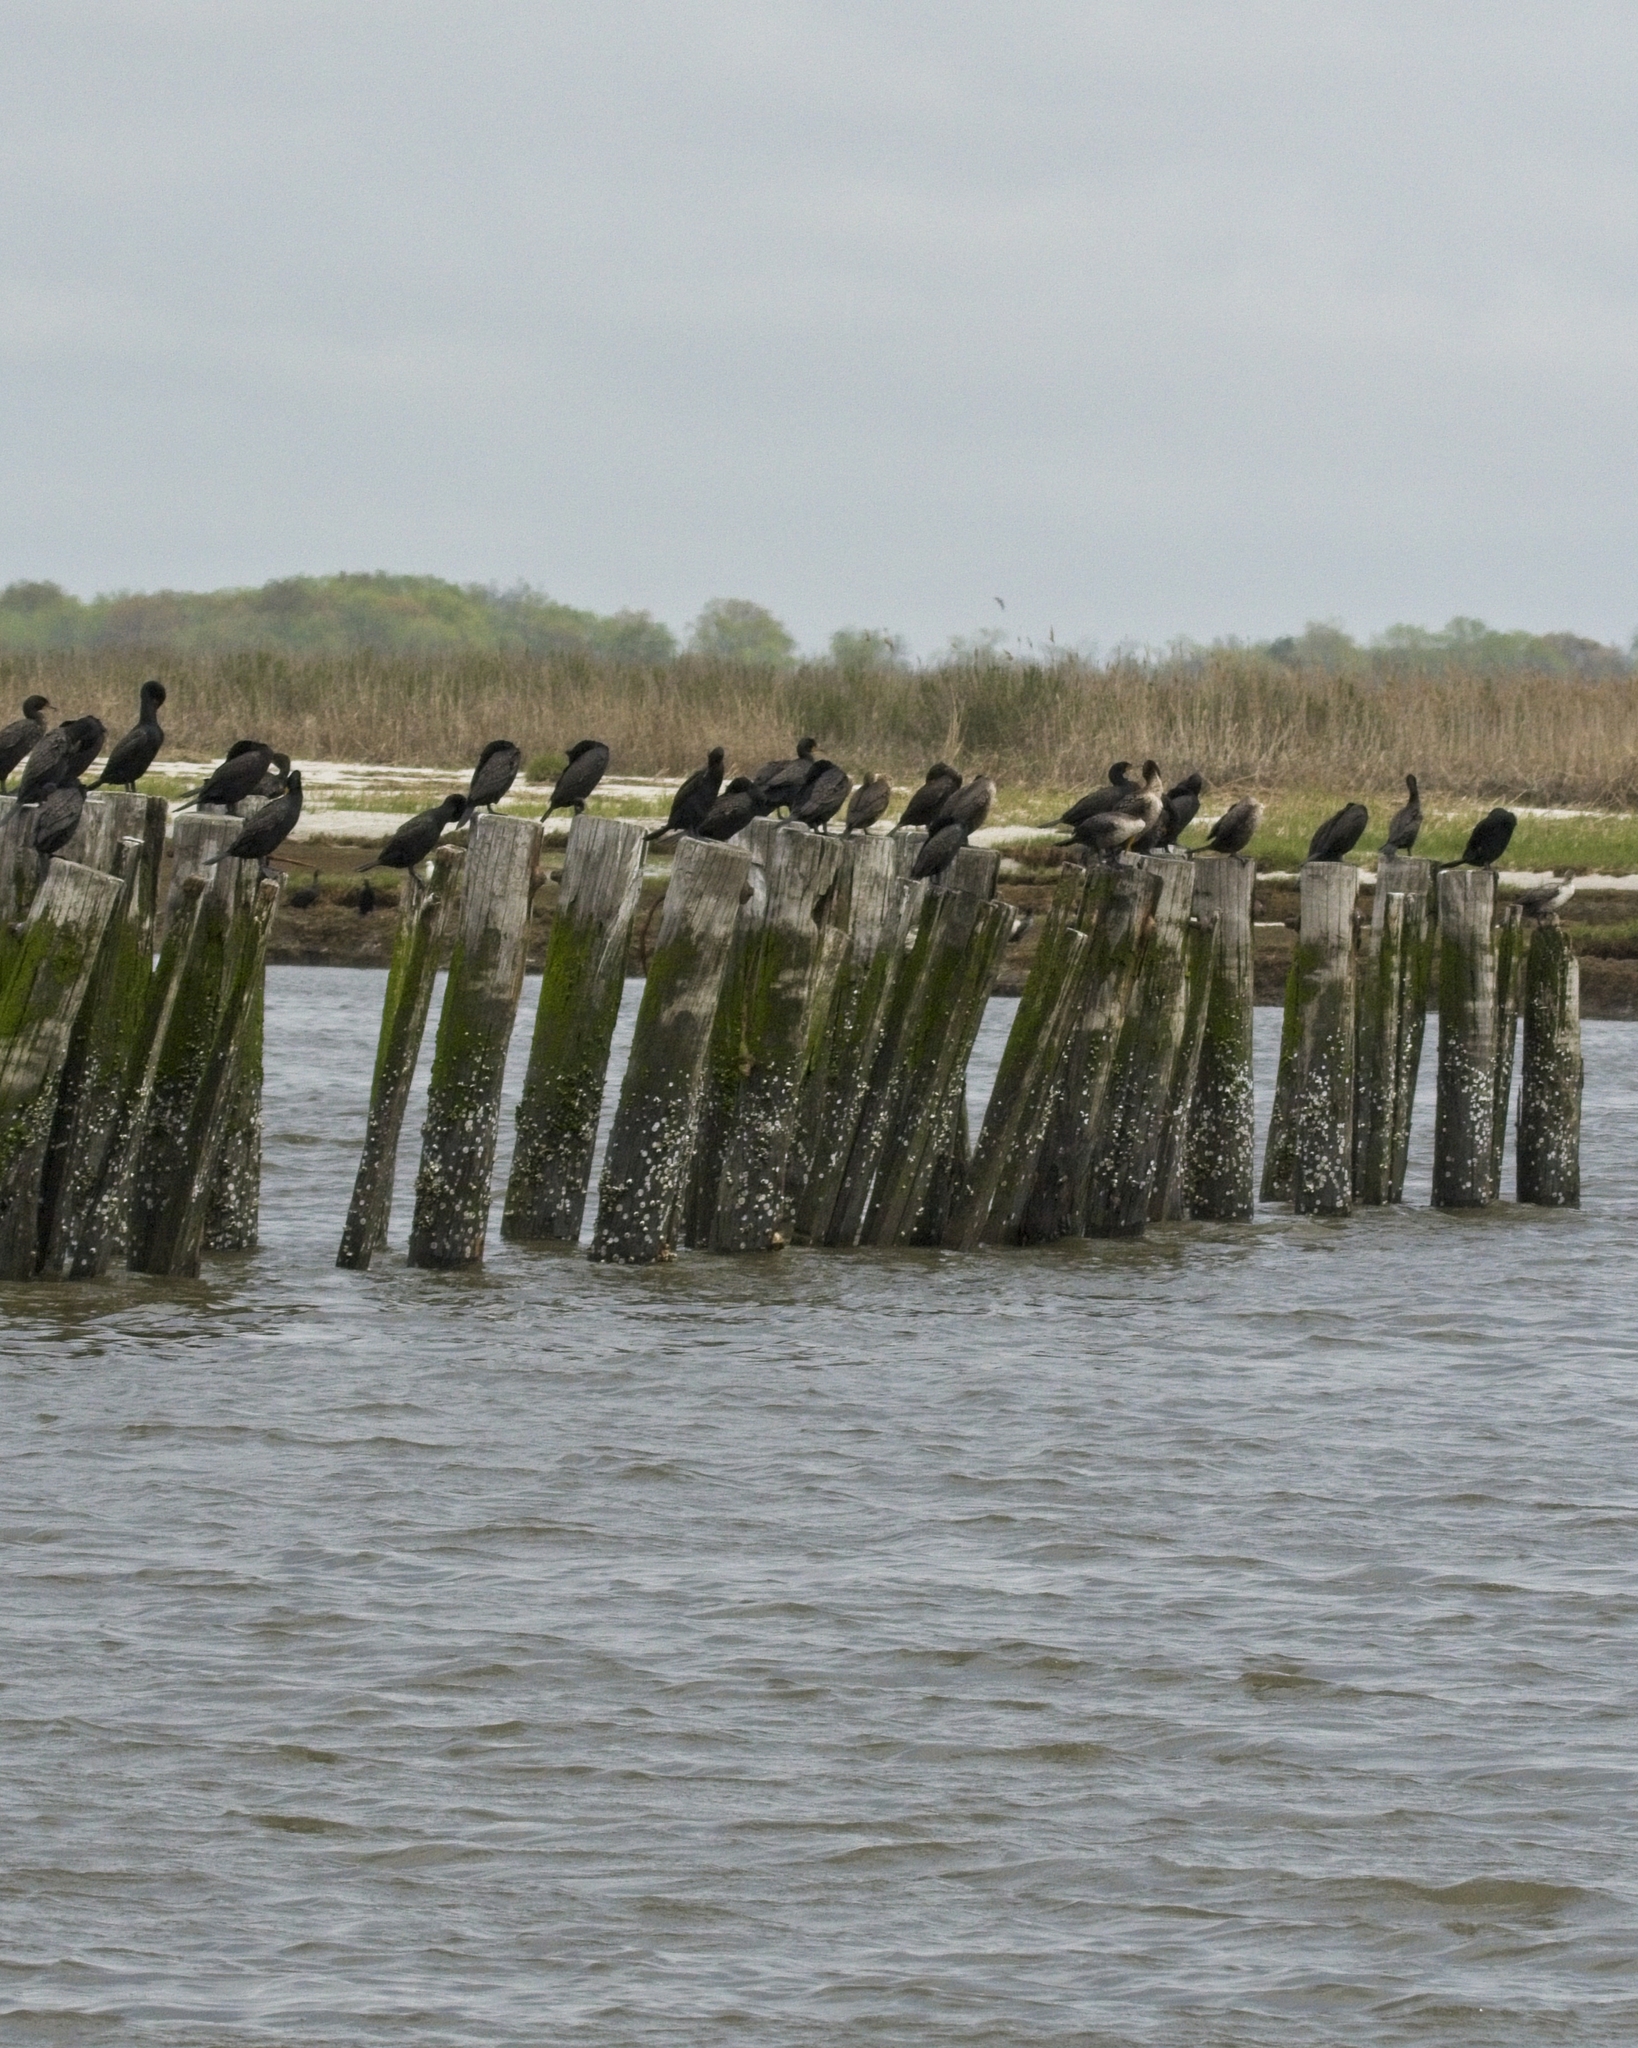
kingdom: Animalia
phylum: Chordata
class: Aves
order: Suliformes
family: Phalacrocoracidae
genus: Phalacrocorax
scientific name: Phalacrocorax auritus
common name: Double-crested cormorant
